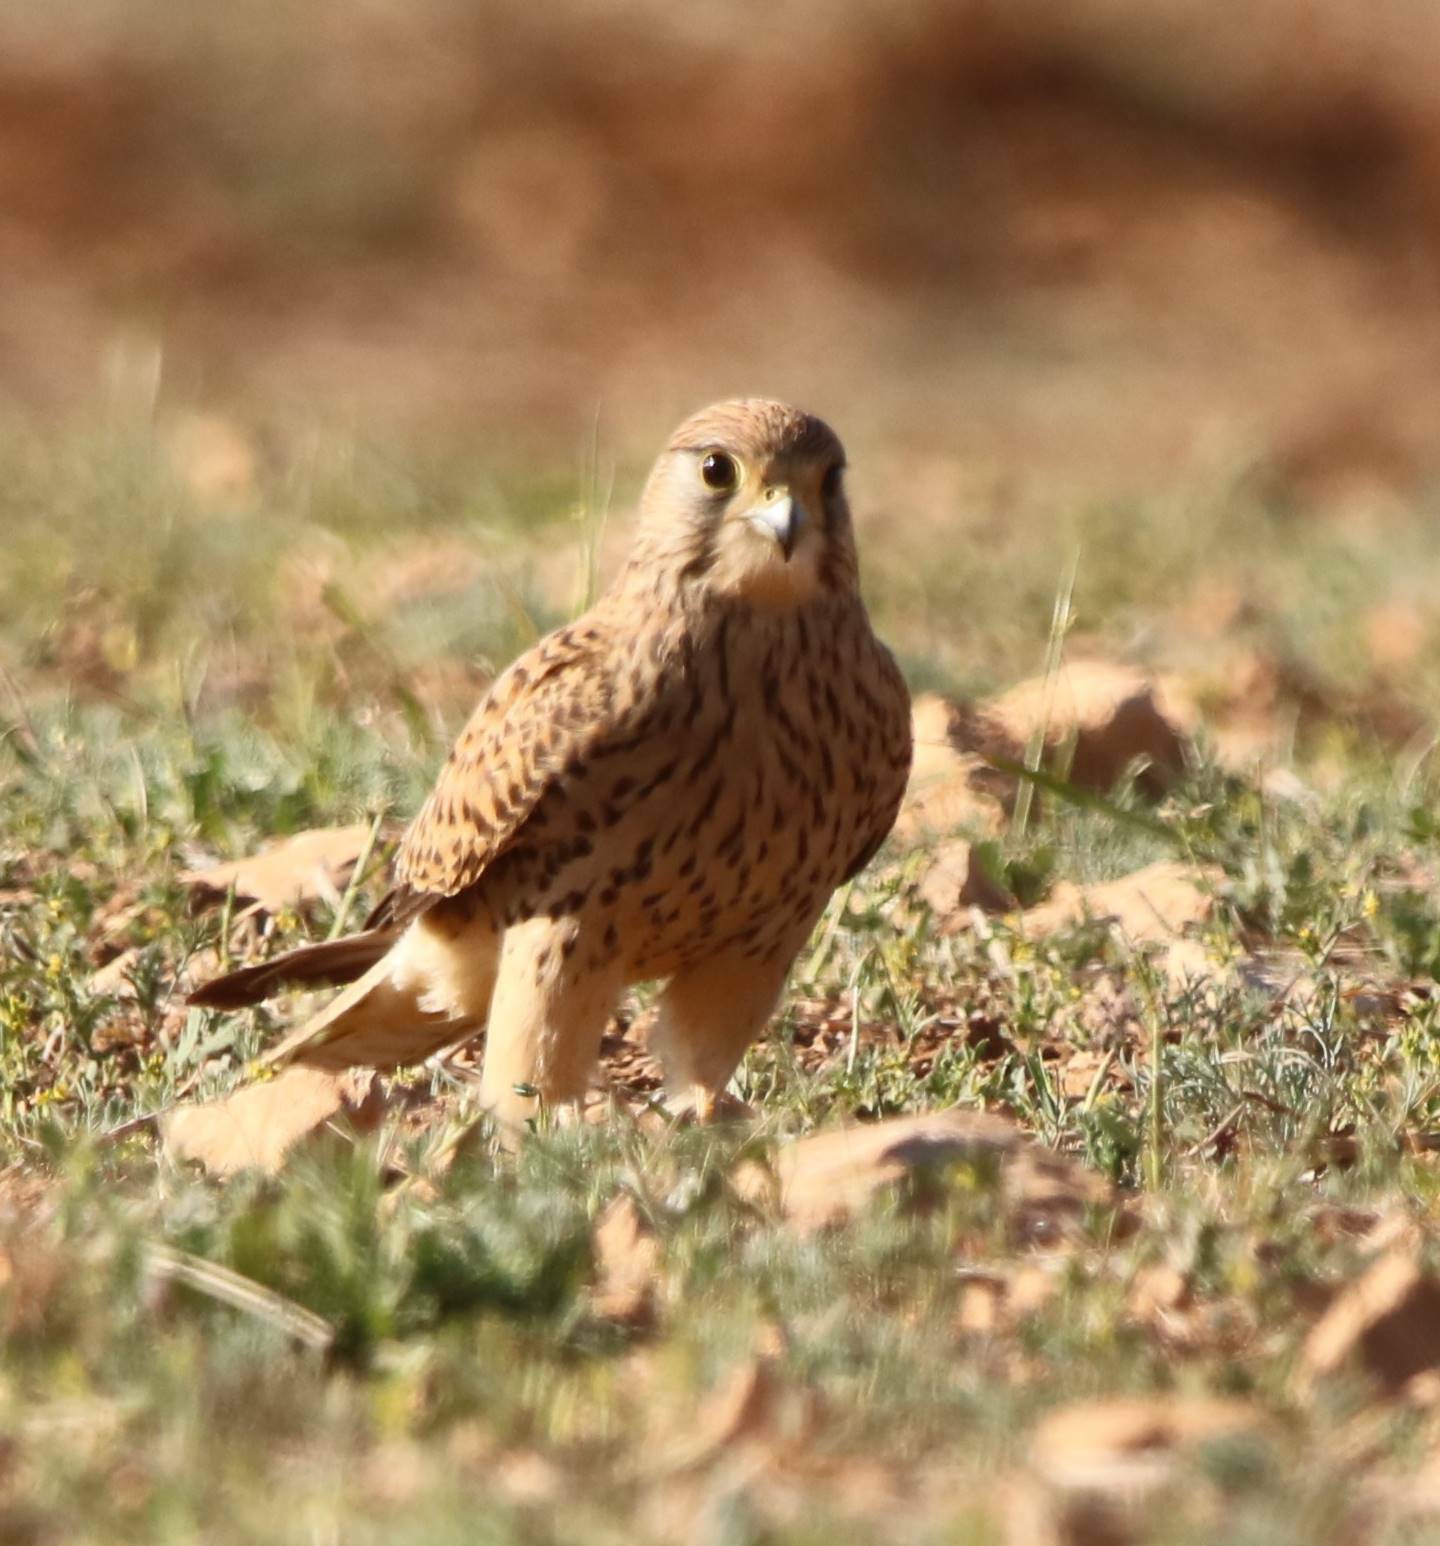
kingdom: Animalia
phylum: Chordata
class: Aves
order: Falconiformes
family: Falconidae
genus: Falco
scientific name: Falco tinnunculus
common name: Common kestrel
